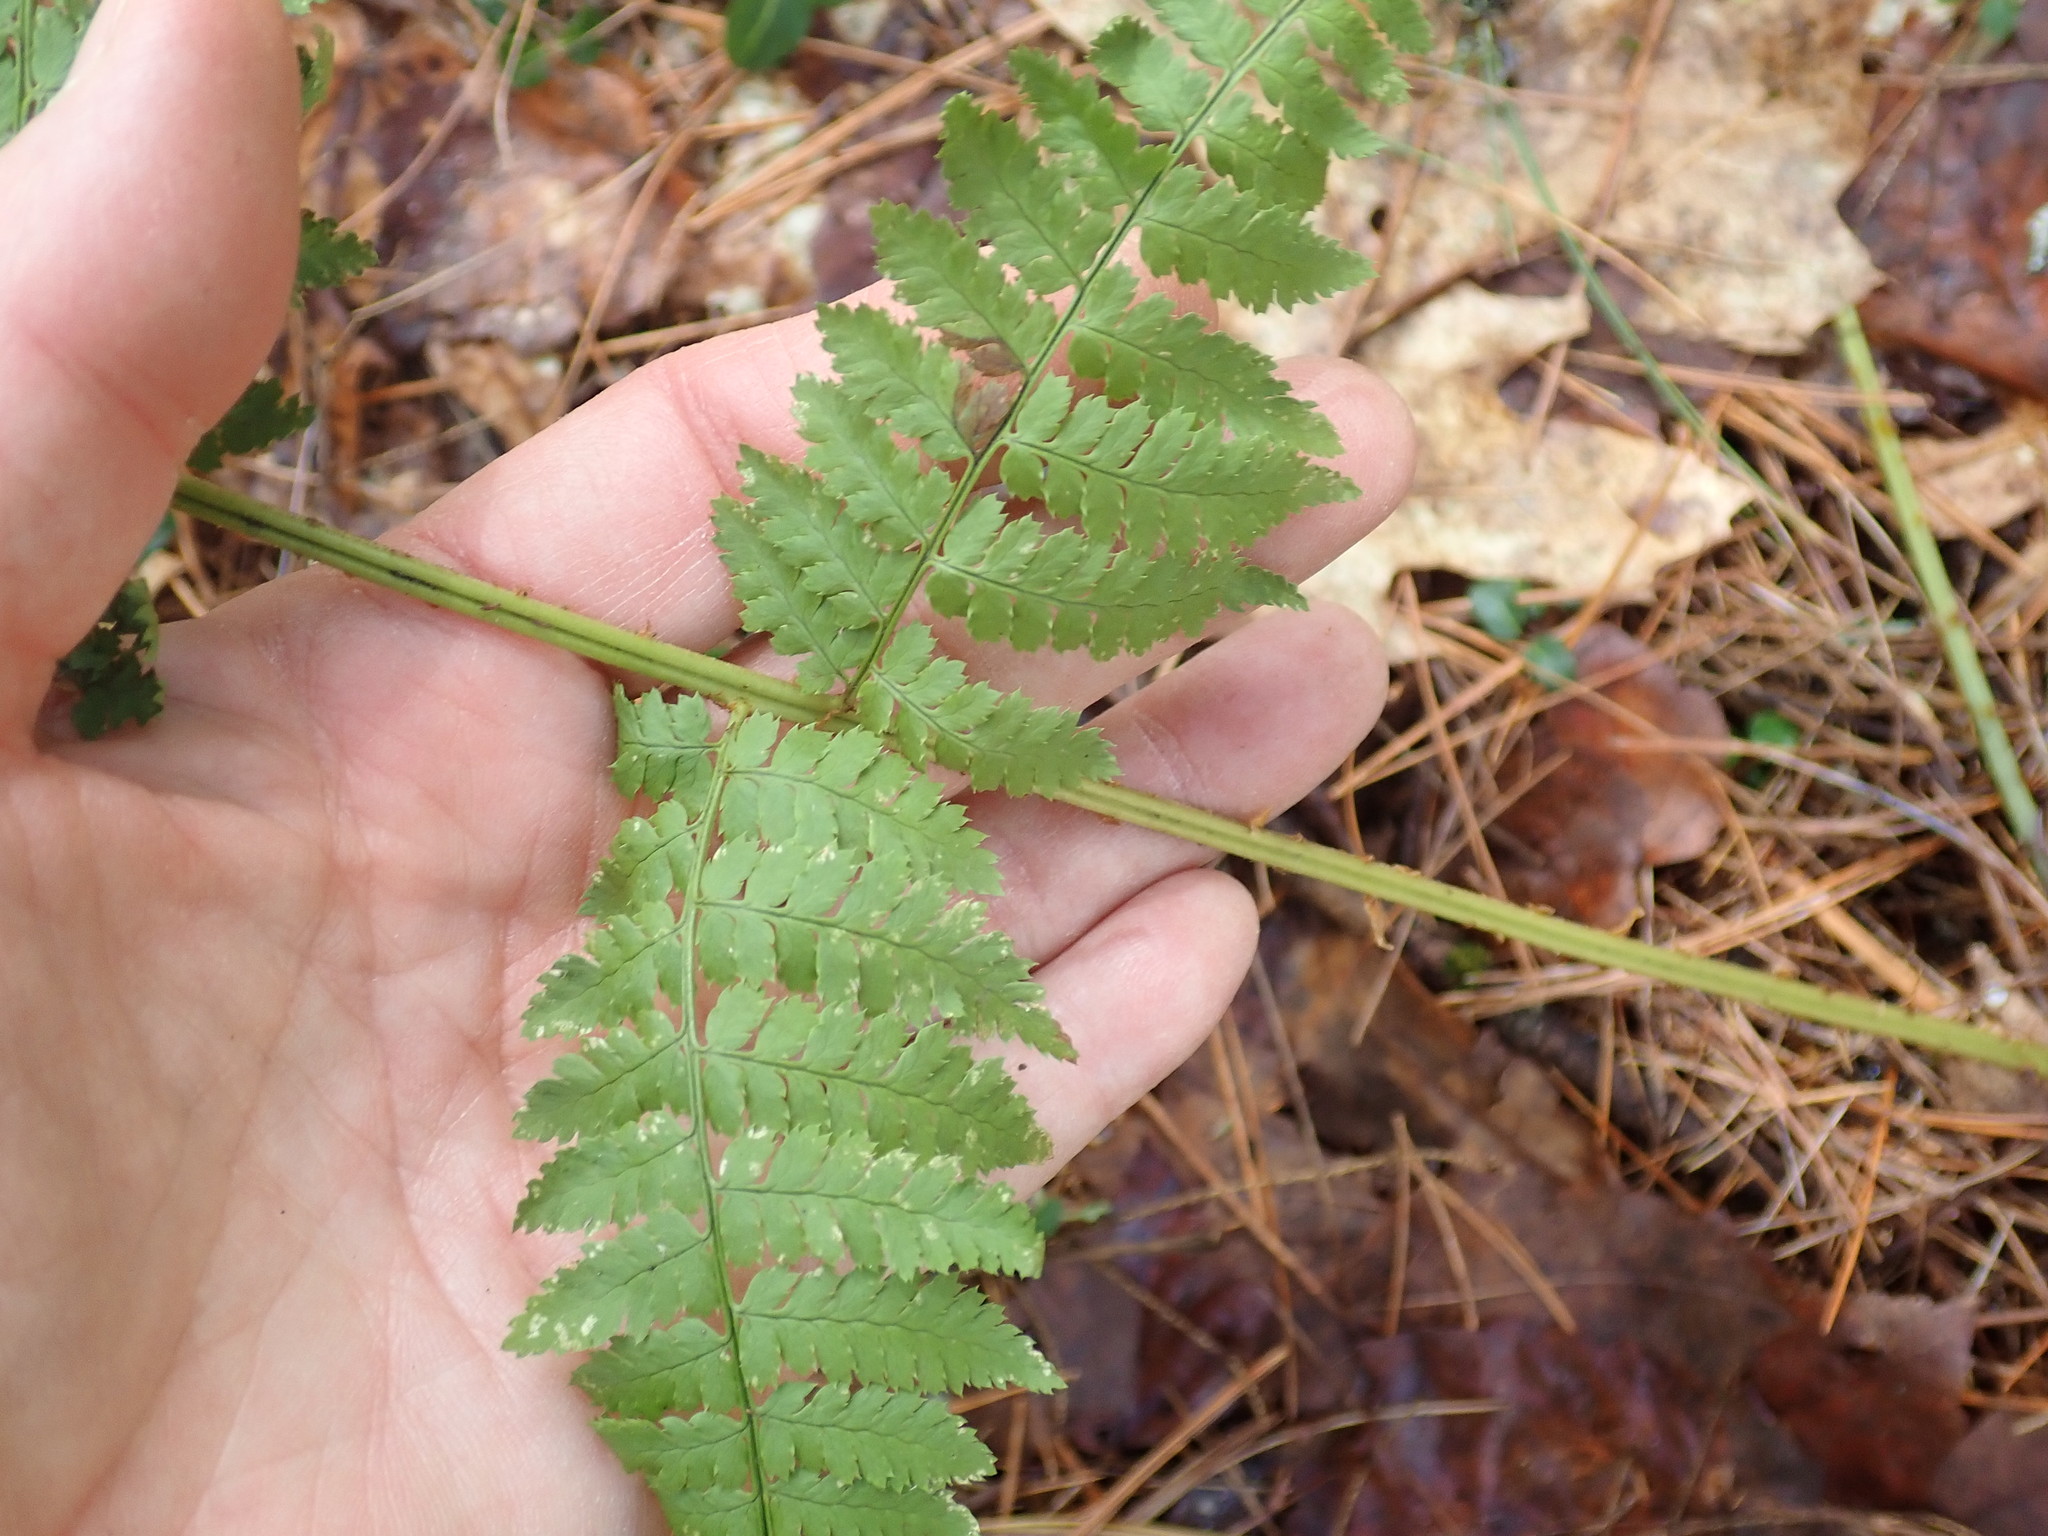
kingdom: Plantae
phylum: Tracheophyta
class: Polypodiopsida
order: Polypodiales
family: Dryopteridaceae
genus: Dryopteris
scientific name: Dryopteris intermedia
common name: Evergreen wood fern
